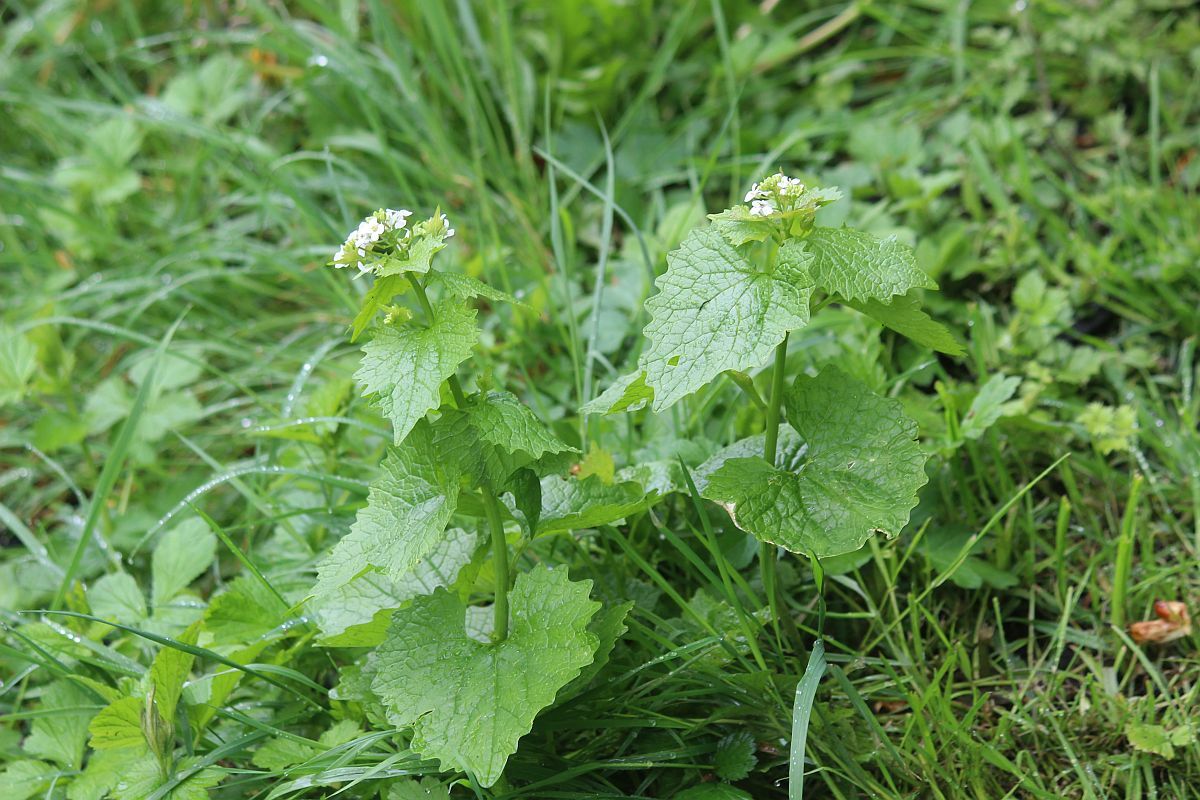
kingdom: Plantae
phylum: Tracheophyta
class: Magnoliopsida
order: Brassicales
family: Brassicaceae
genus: Alliaria
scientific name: Alliaria petiolata
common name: Garlic mustard
